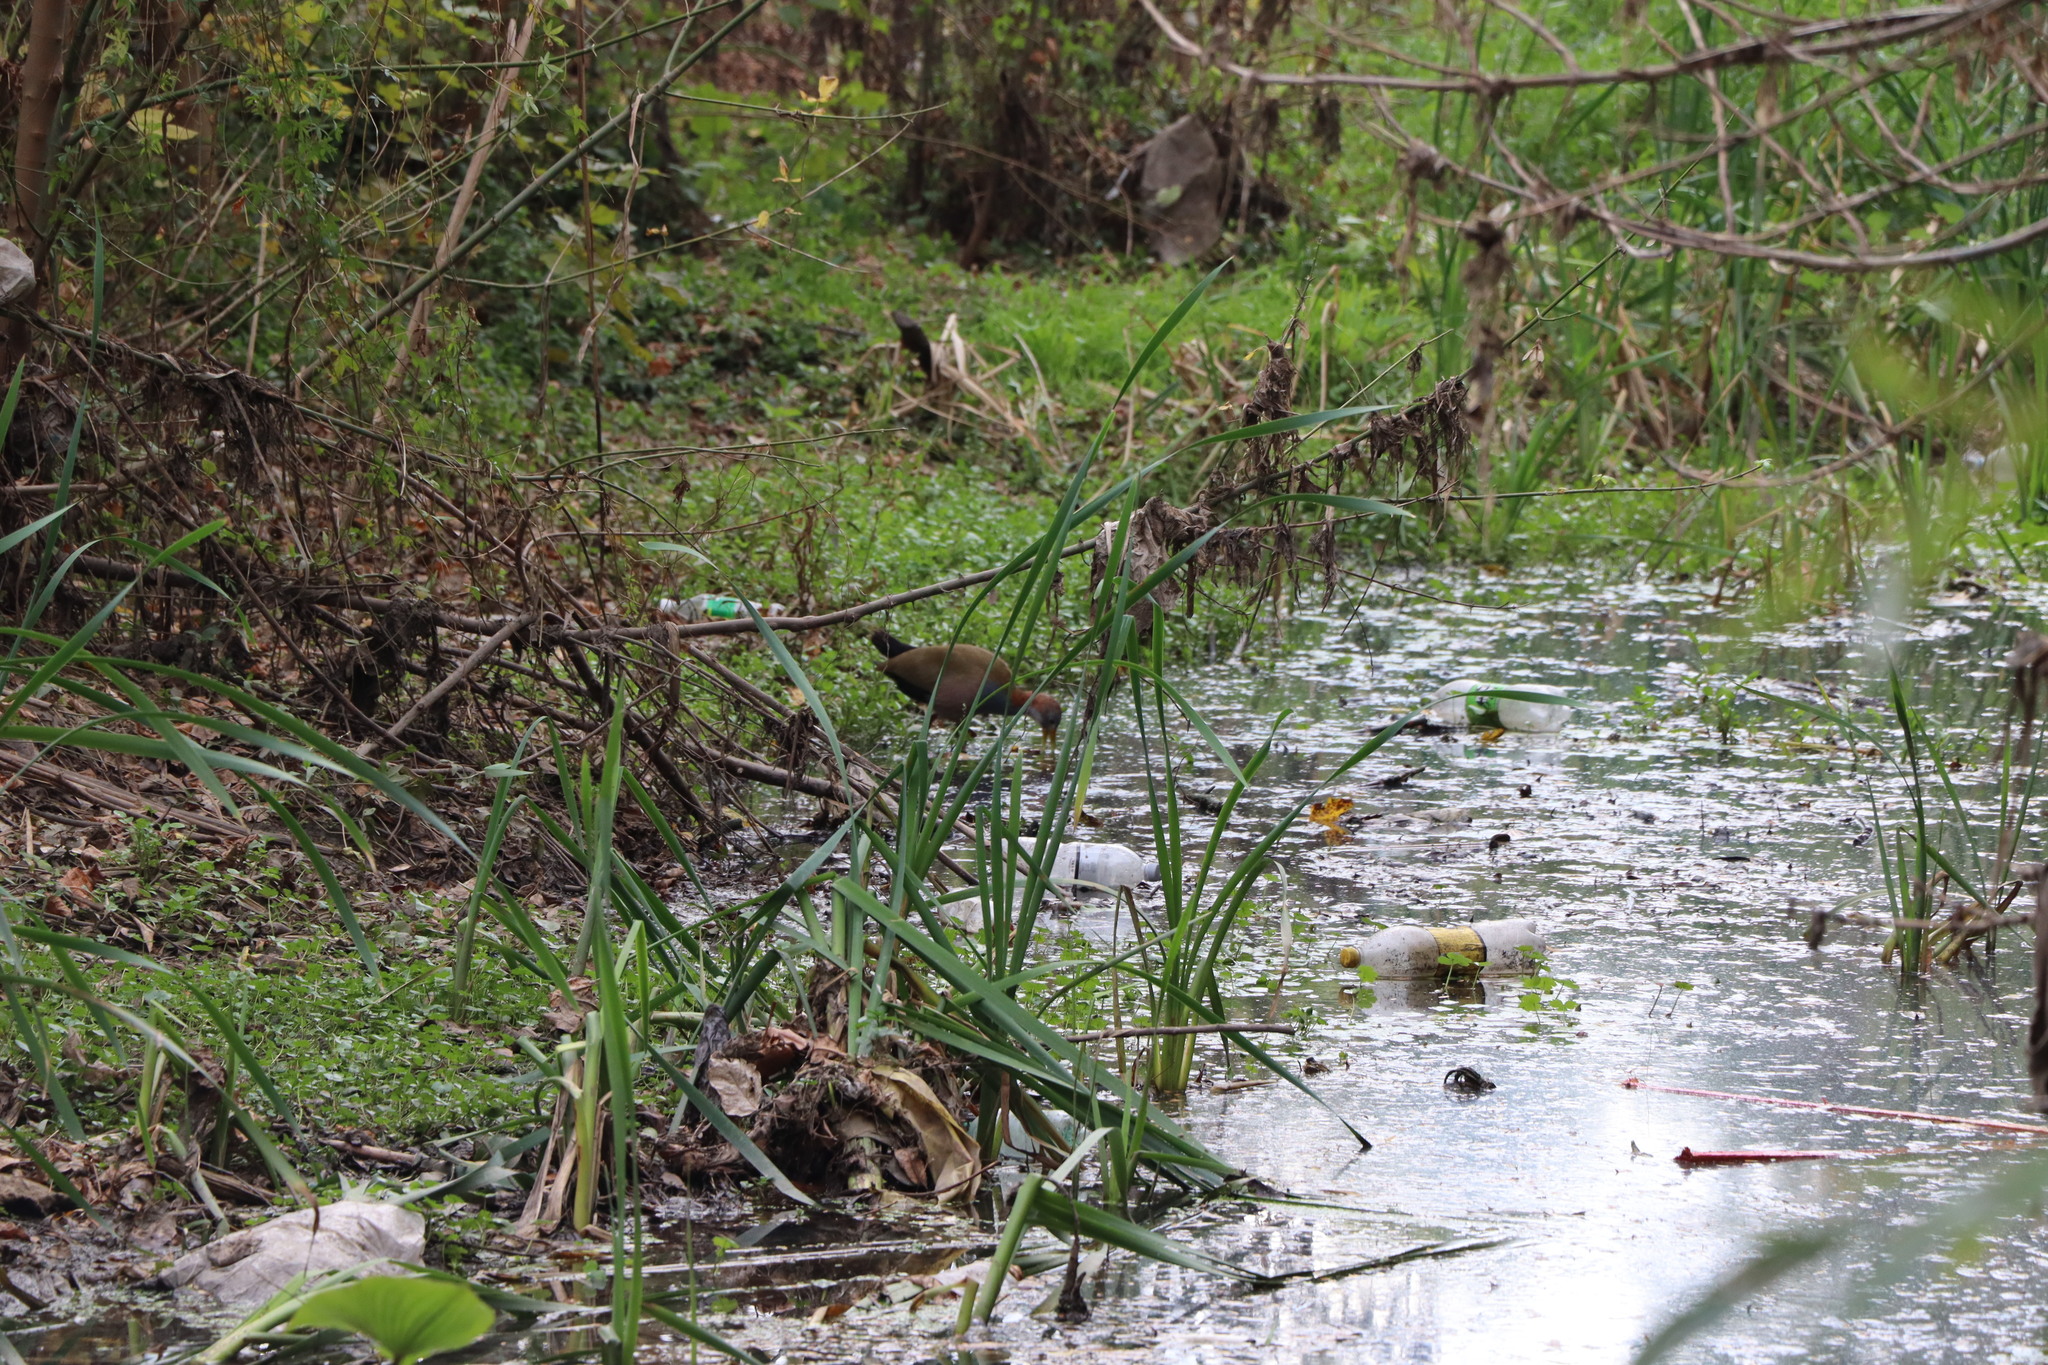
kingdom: Animalia
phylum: Chordata
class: Aves
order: Gruiformes
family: Rallidae
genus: Aramides
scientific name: Aramides ypecaha
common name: Giant wood rail
